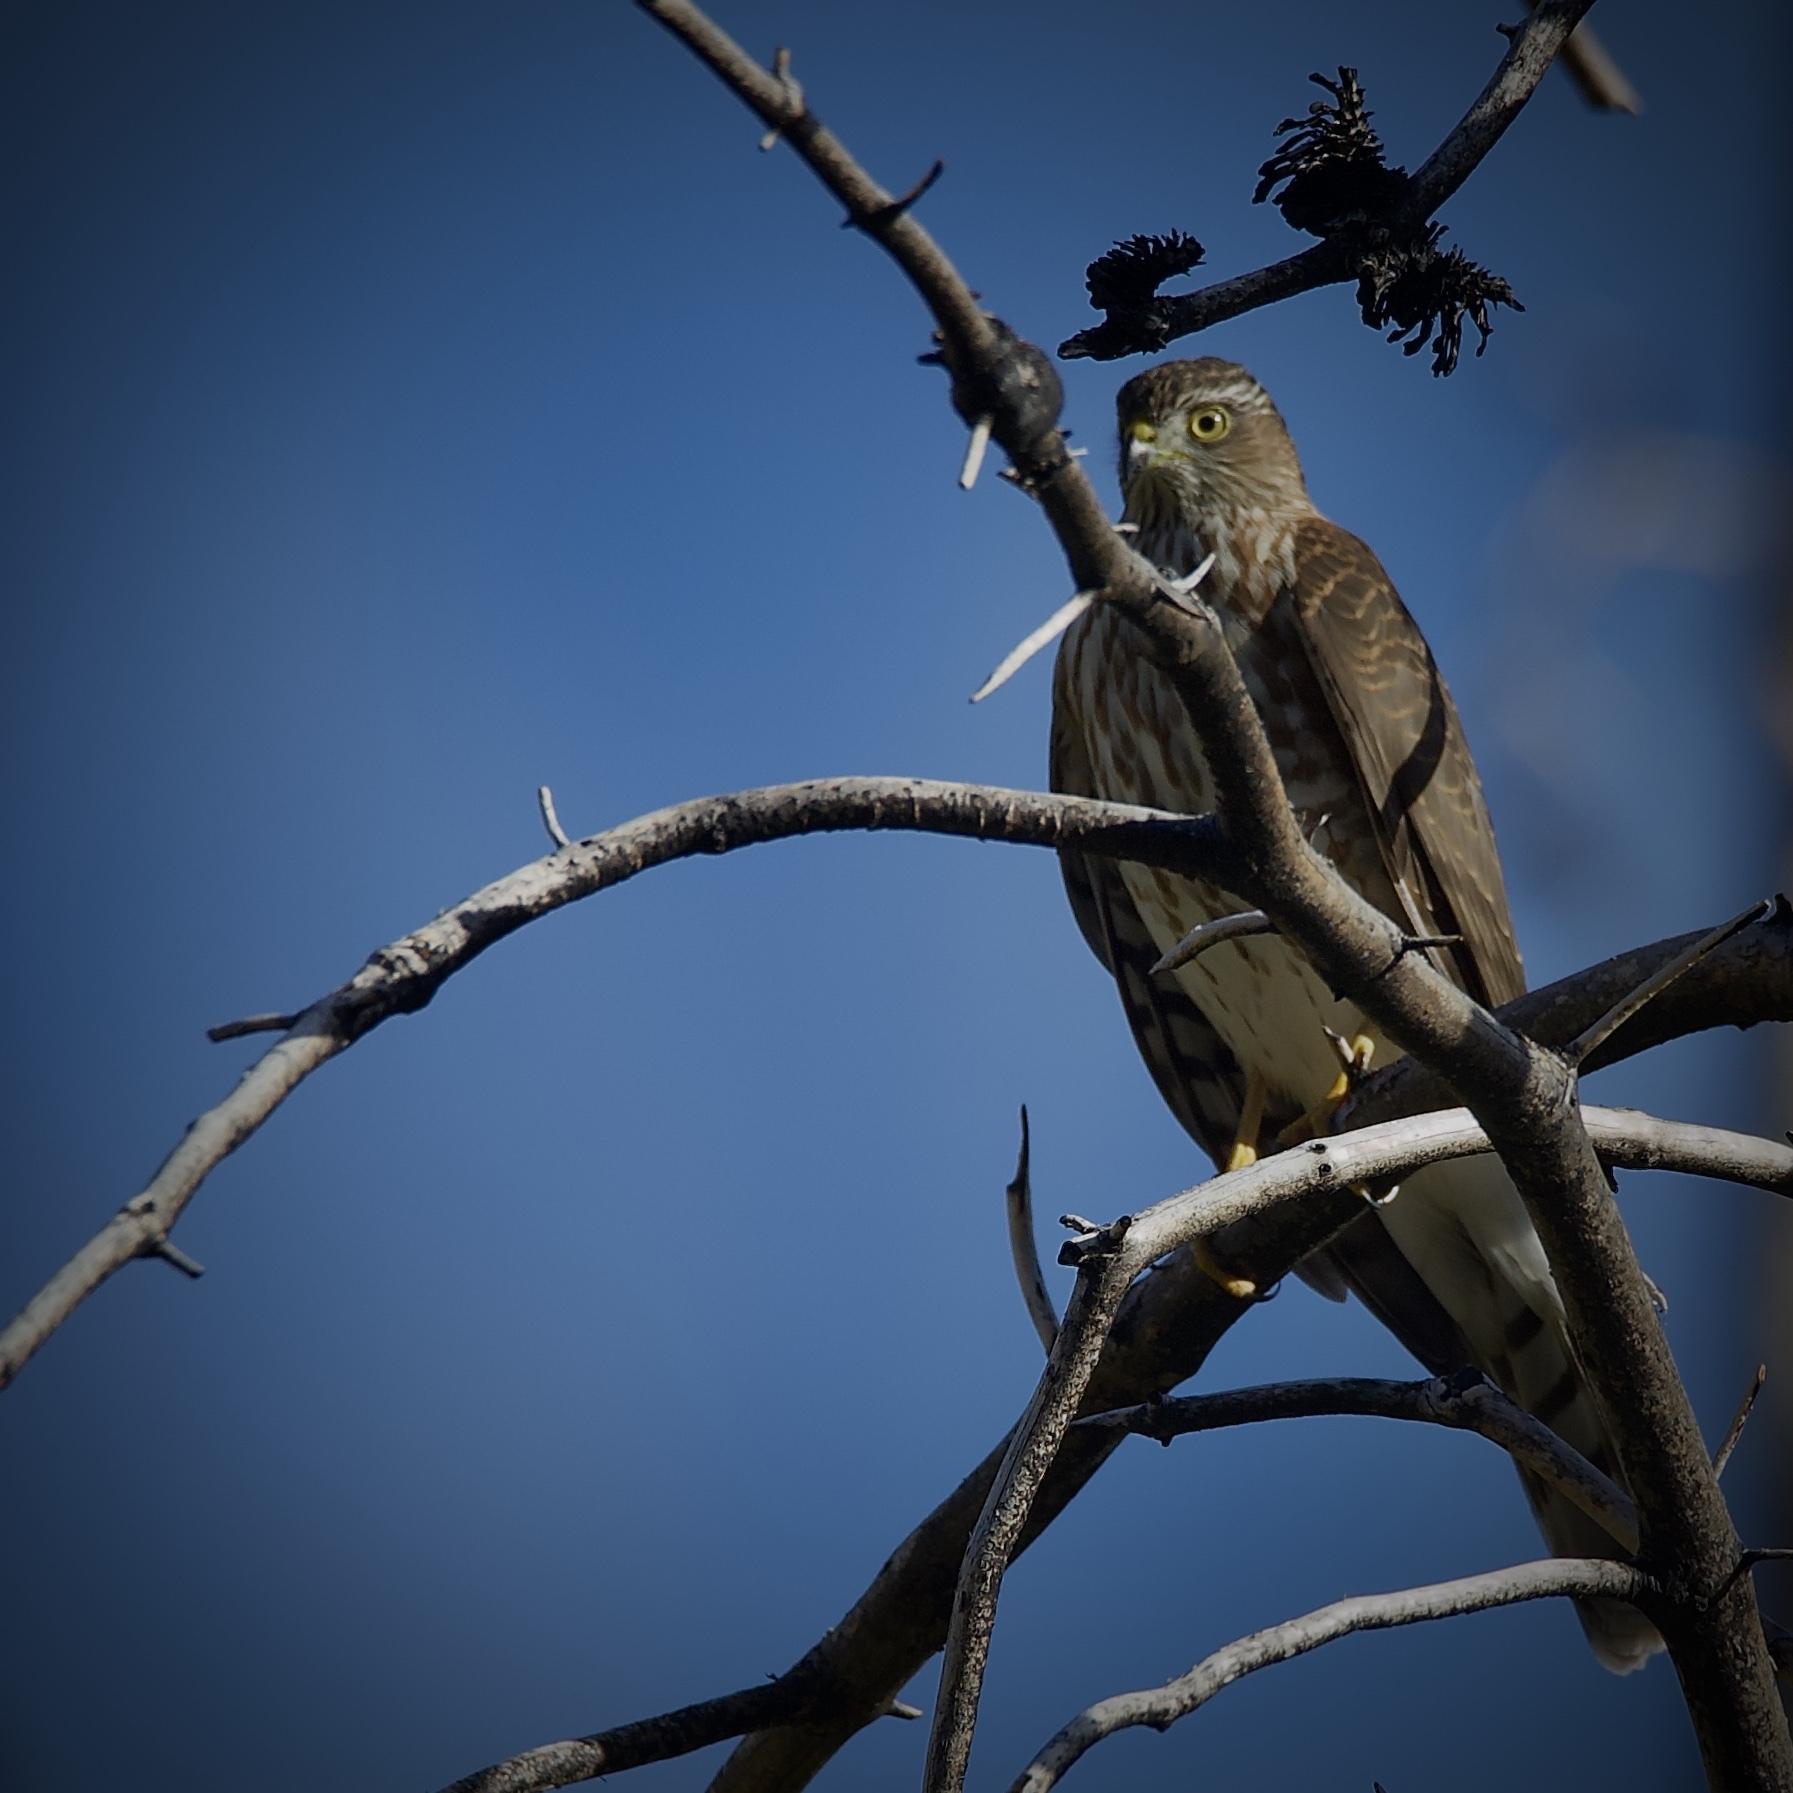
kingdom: Animalia
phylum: Chordata
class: Aves
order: Accipitriformes
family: Accipitridae
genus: Accipiter
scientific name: Accipiter striatus
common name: Sharp-shinned hawk
